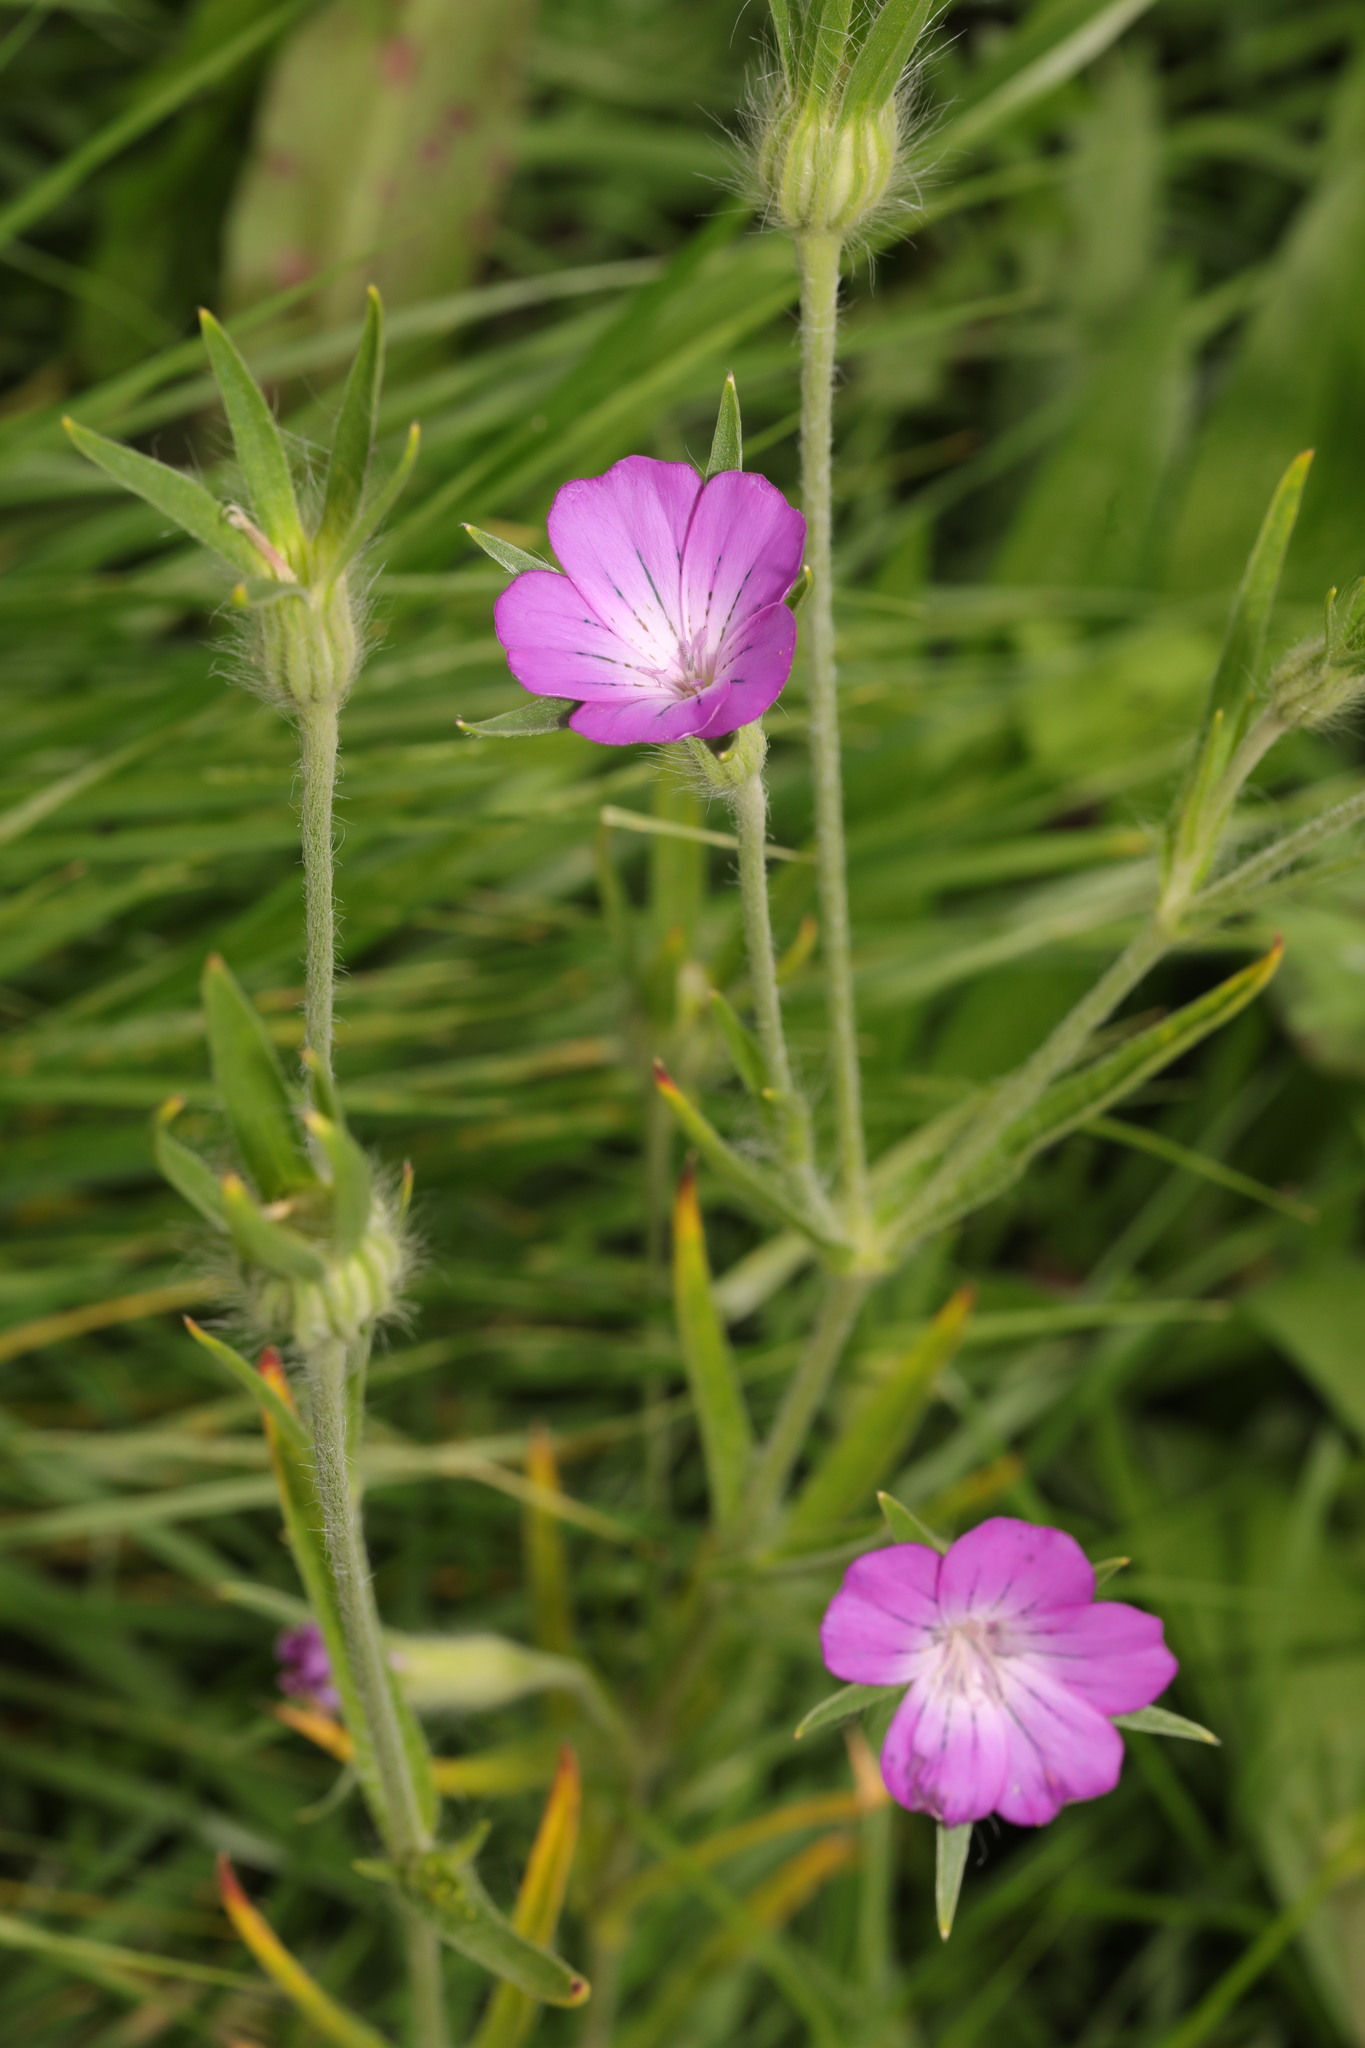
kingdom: Plantae
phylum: Tracheophyta
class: Magnoliopsida
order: Caryophyllales
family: Caryophyllaceae
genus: Agrostemma
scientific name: Agrostemma githago
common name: Common corncockle
